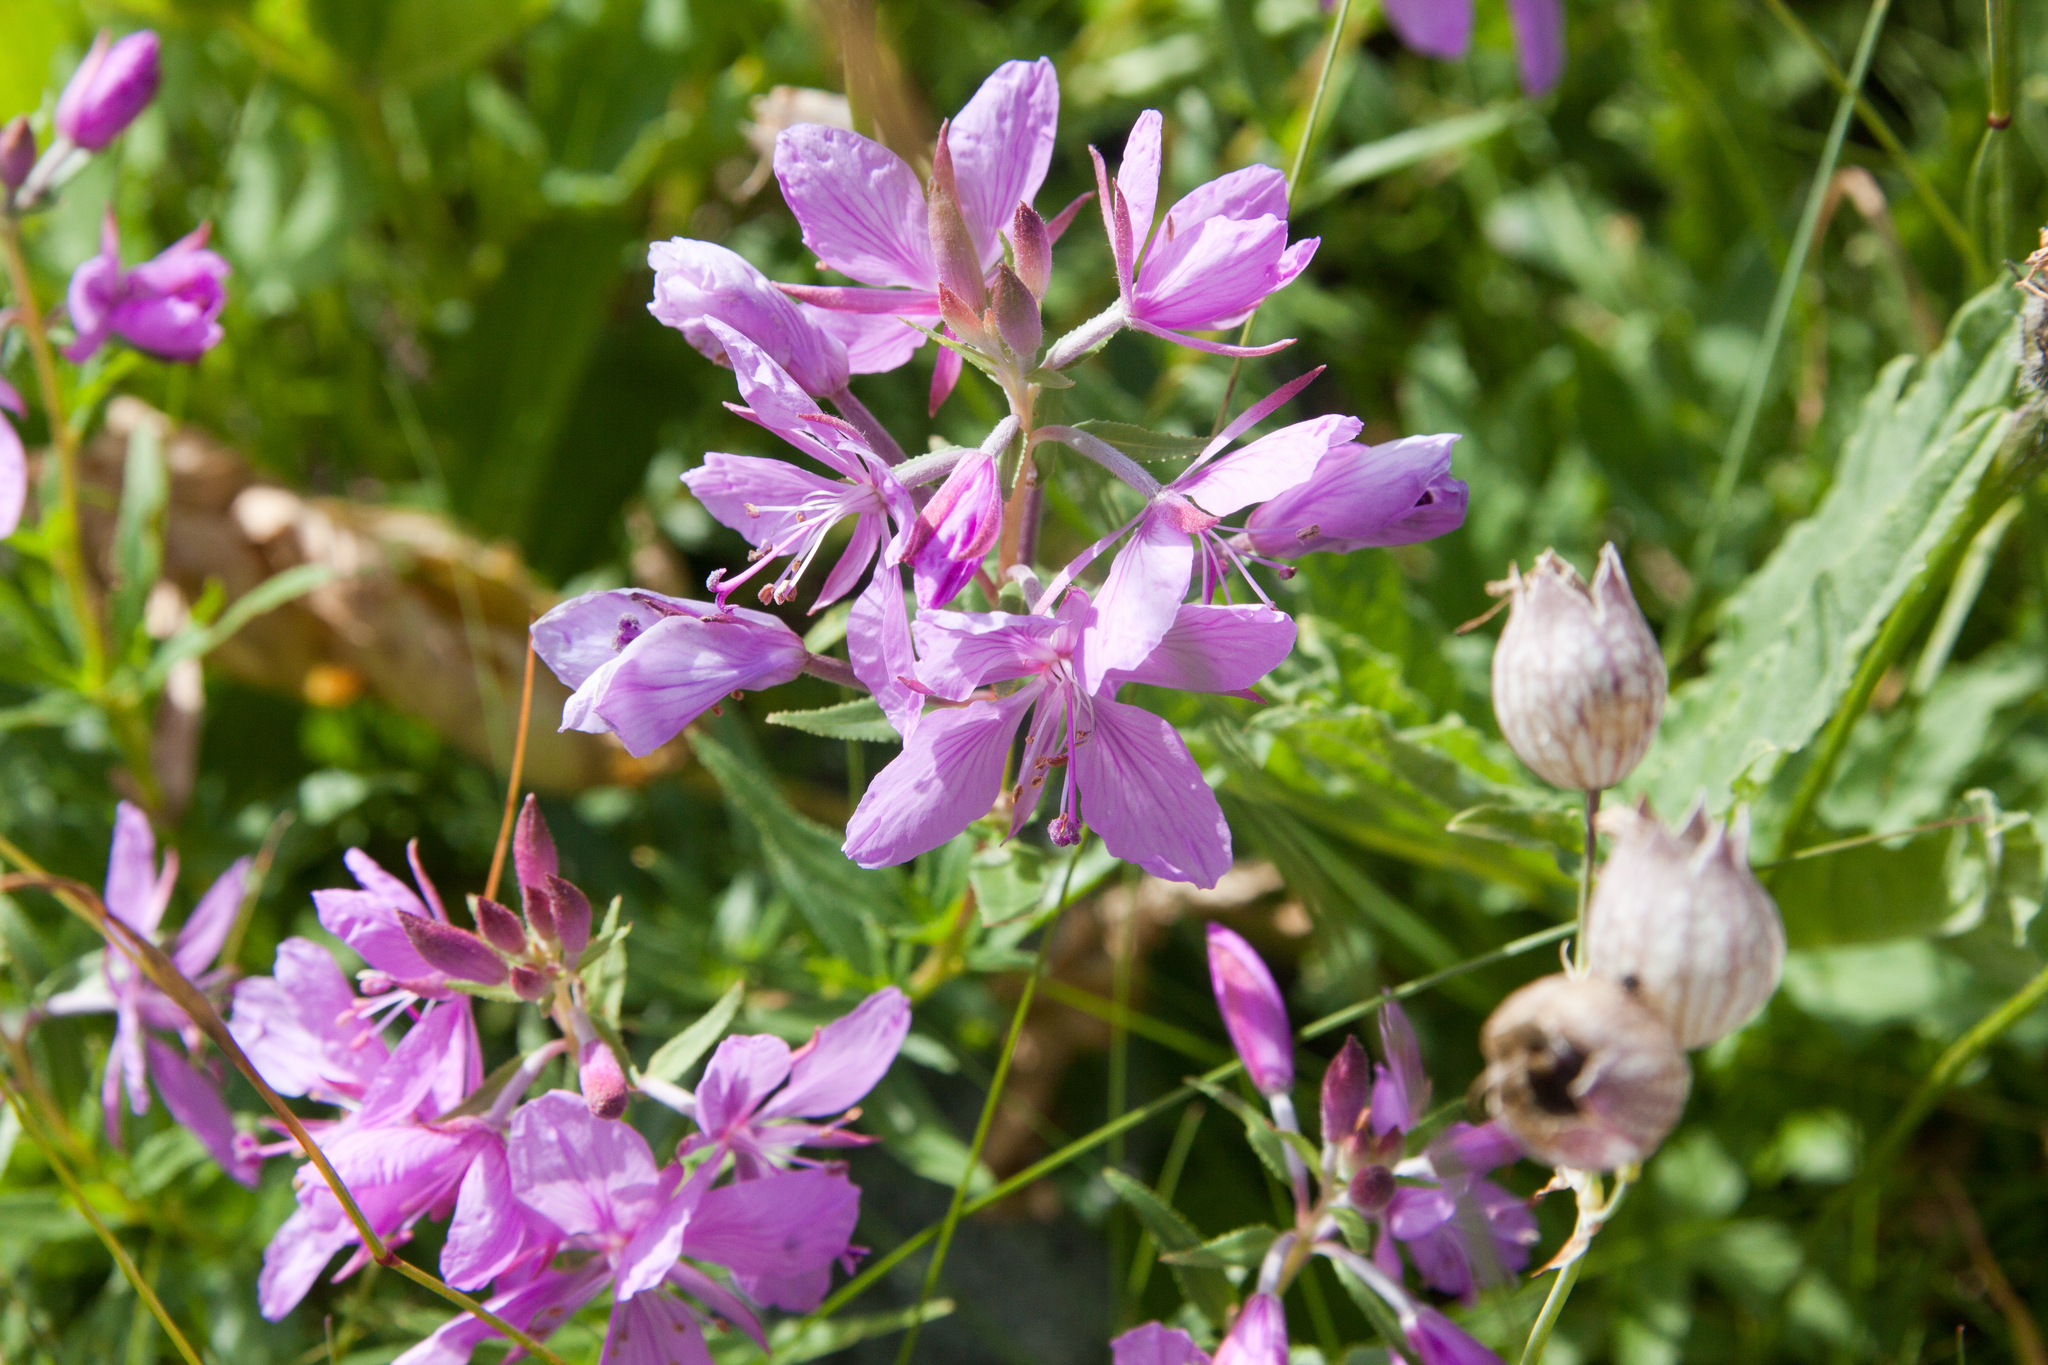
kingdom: Plantae
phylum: Tracheophyta
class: Magnoliopsida
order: Myrtales
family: Onagraceae
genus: Chamaenerion
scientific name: Chamaenerion colchicum
